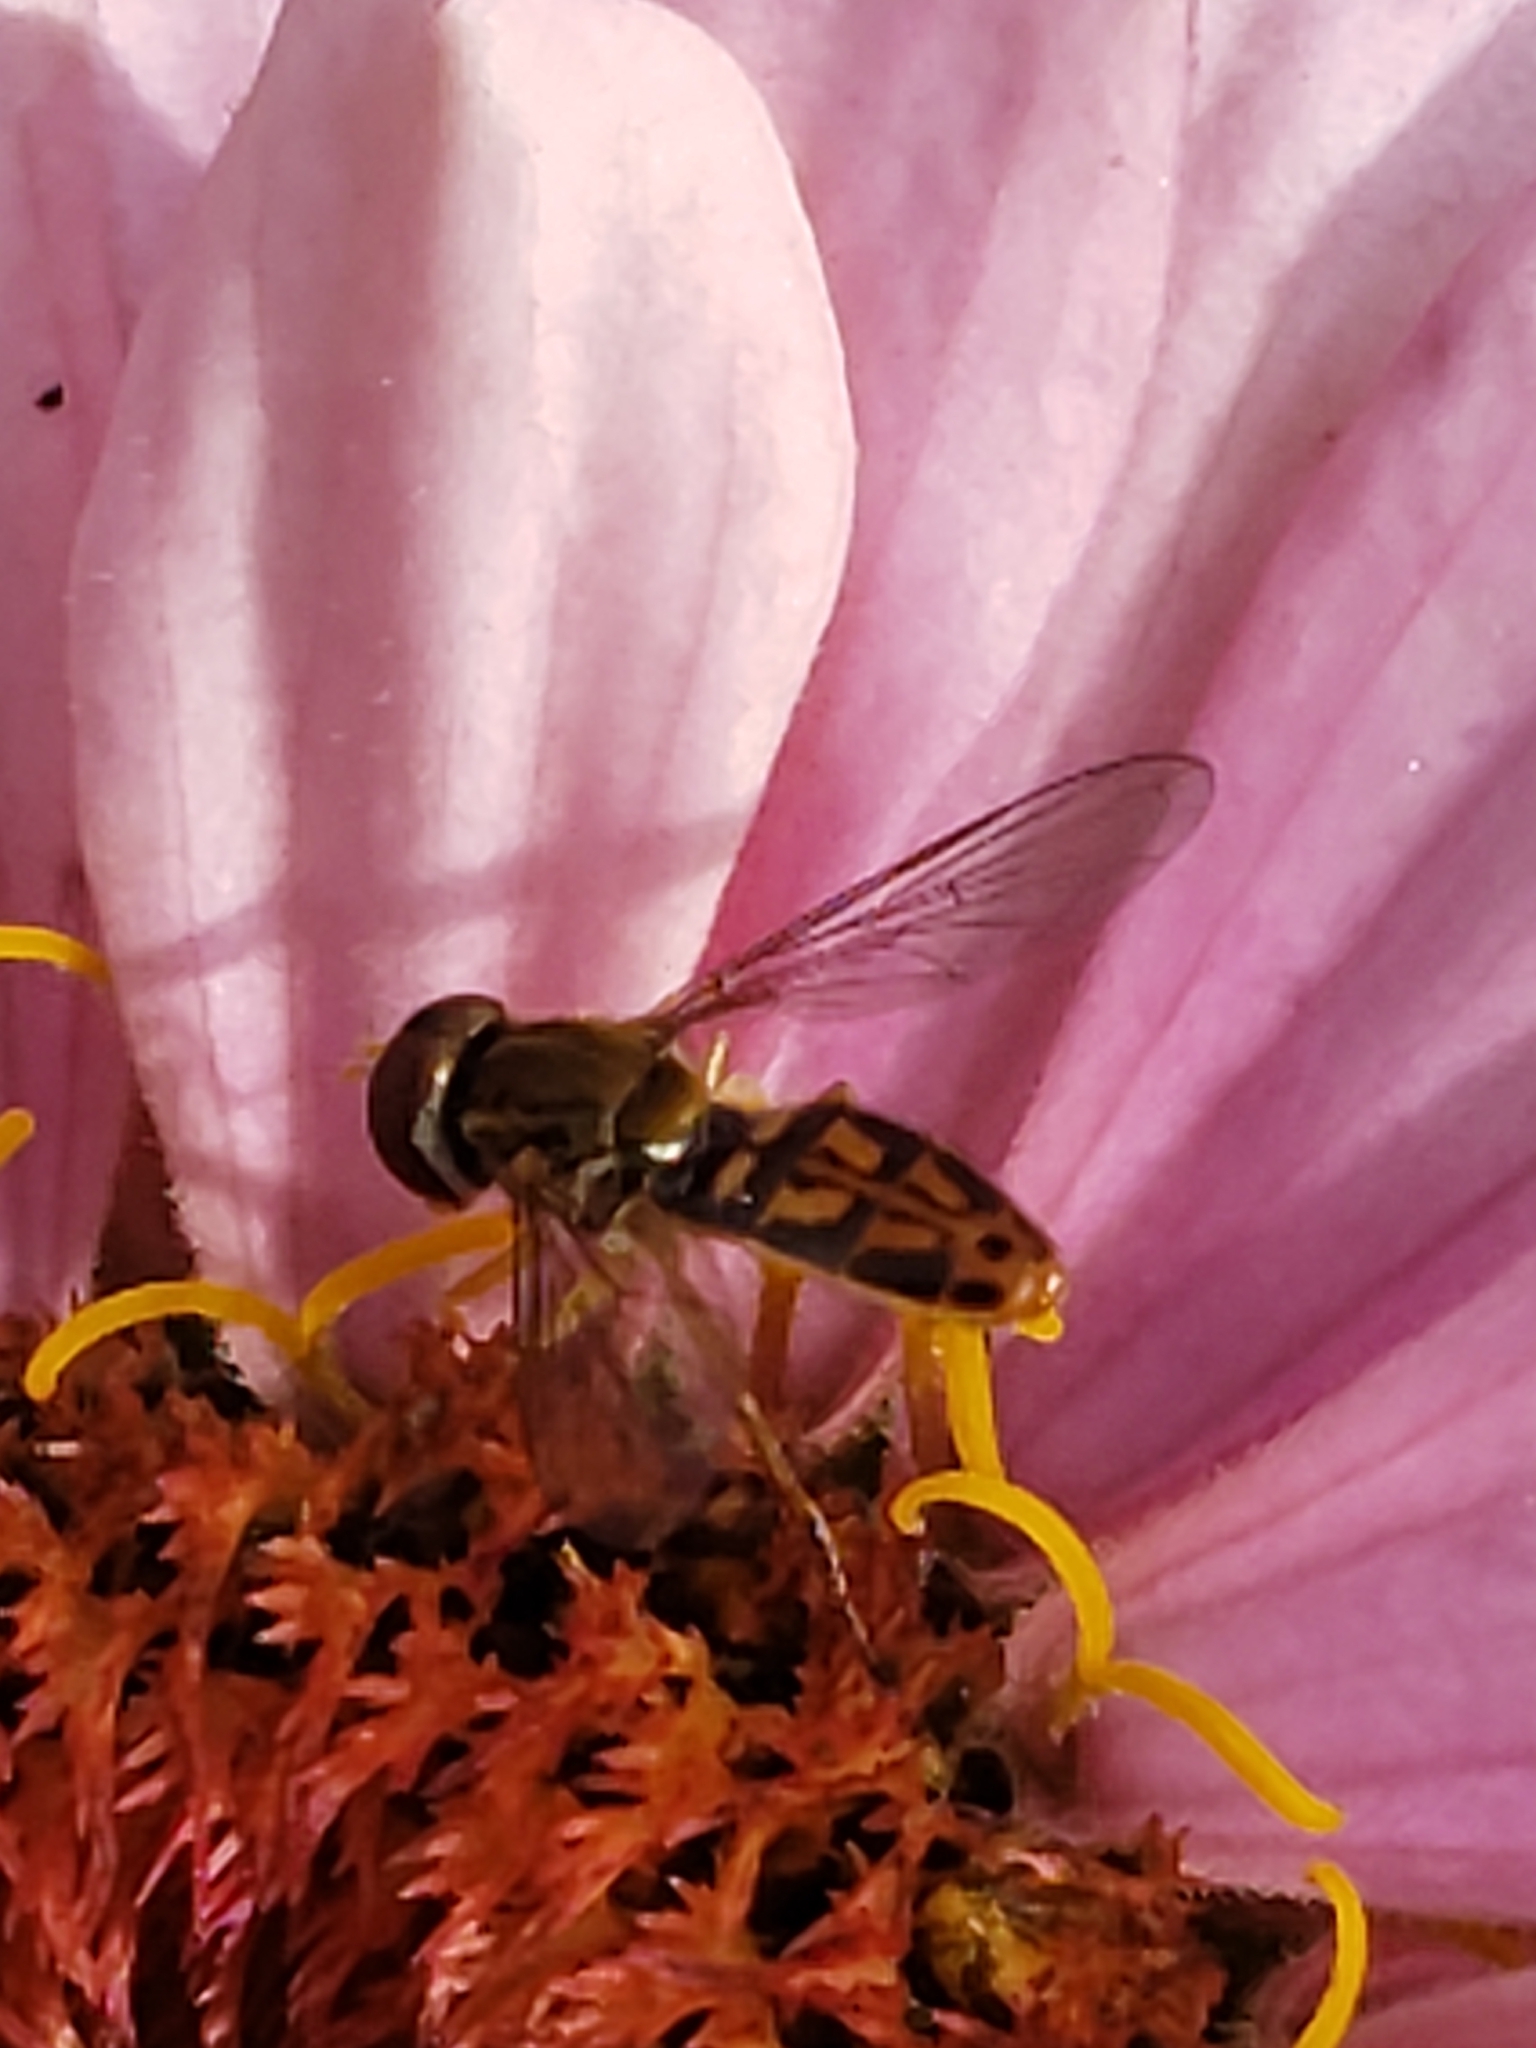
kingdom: Animalia
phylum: Arthropoda
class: Insecta
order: Diptera
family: Syrphidae
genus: Toxomerus
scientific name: Toxomerus marginatus
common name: Syrphid fly
